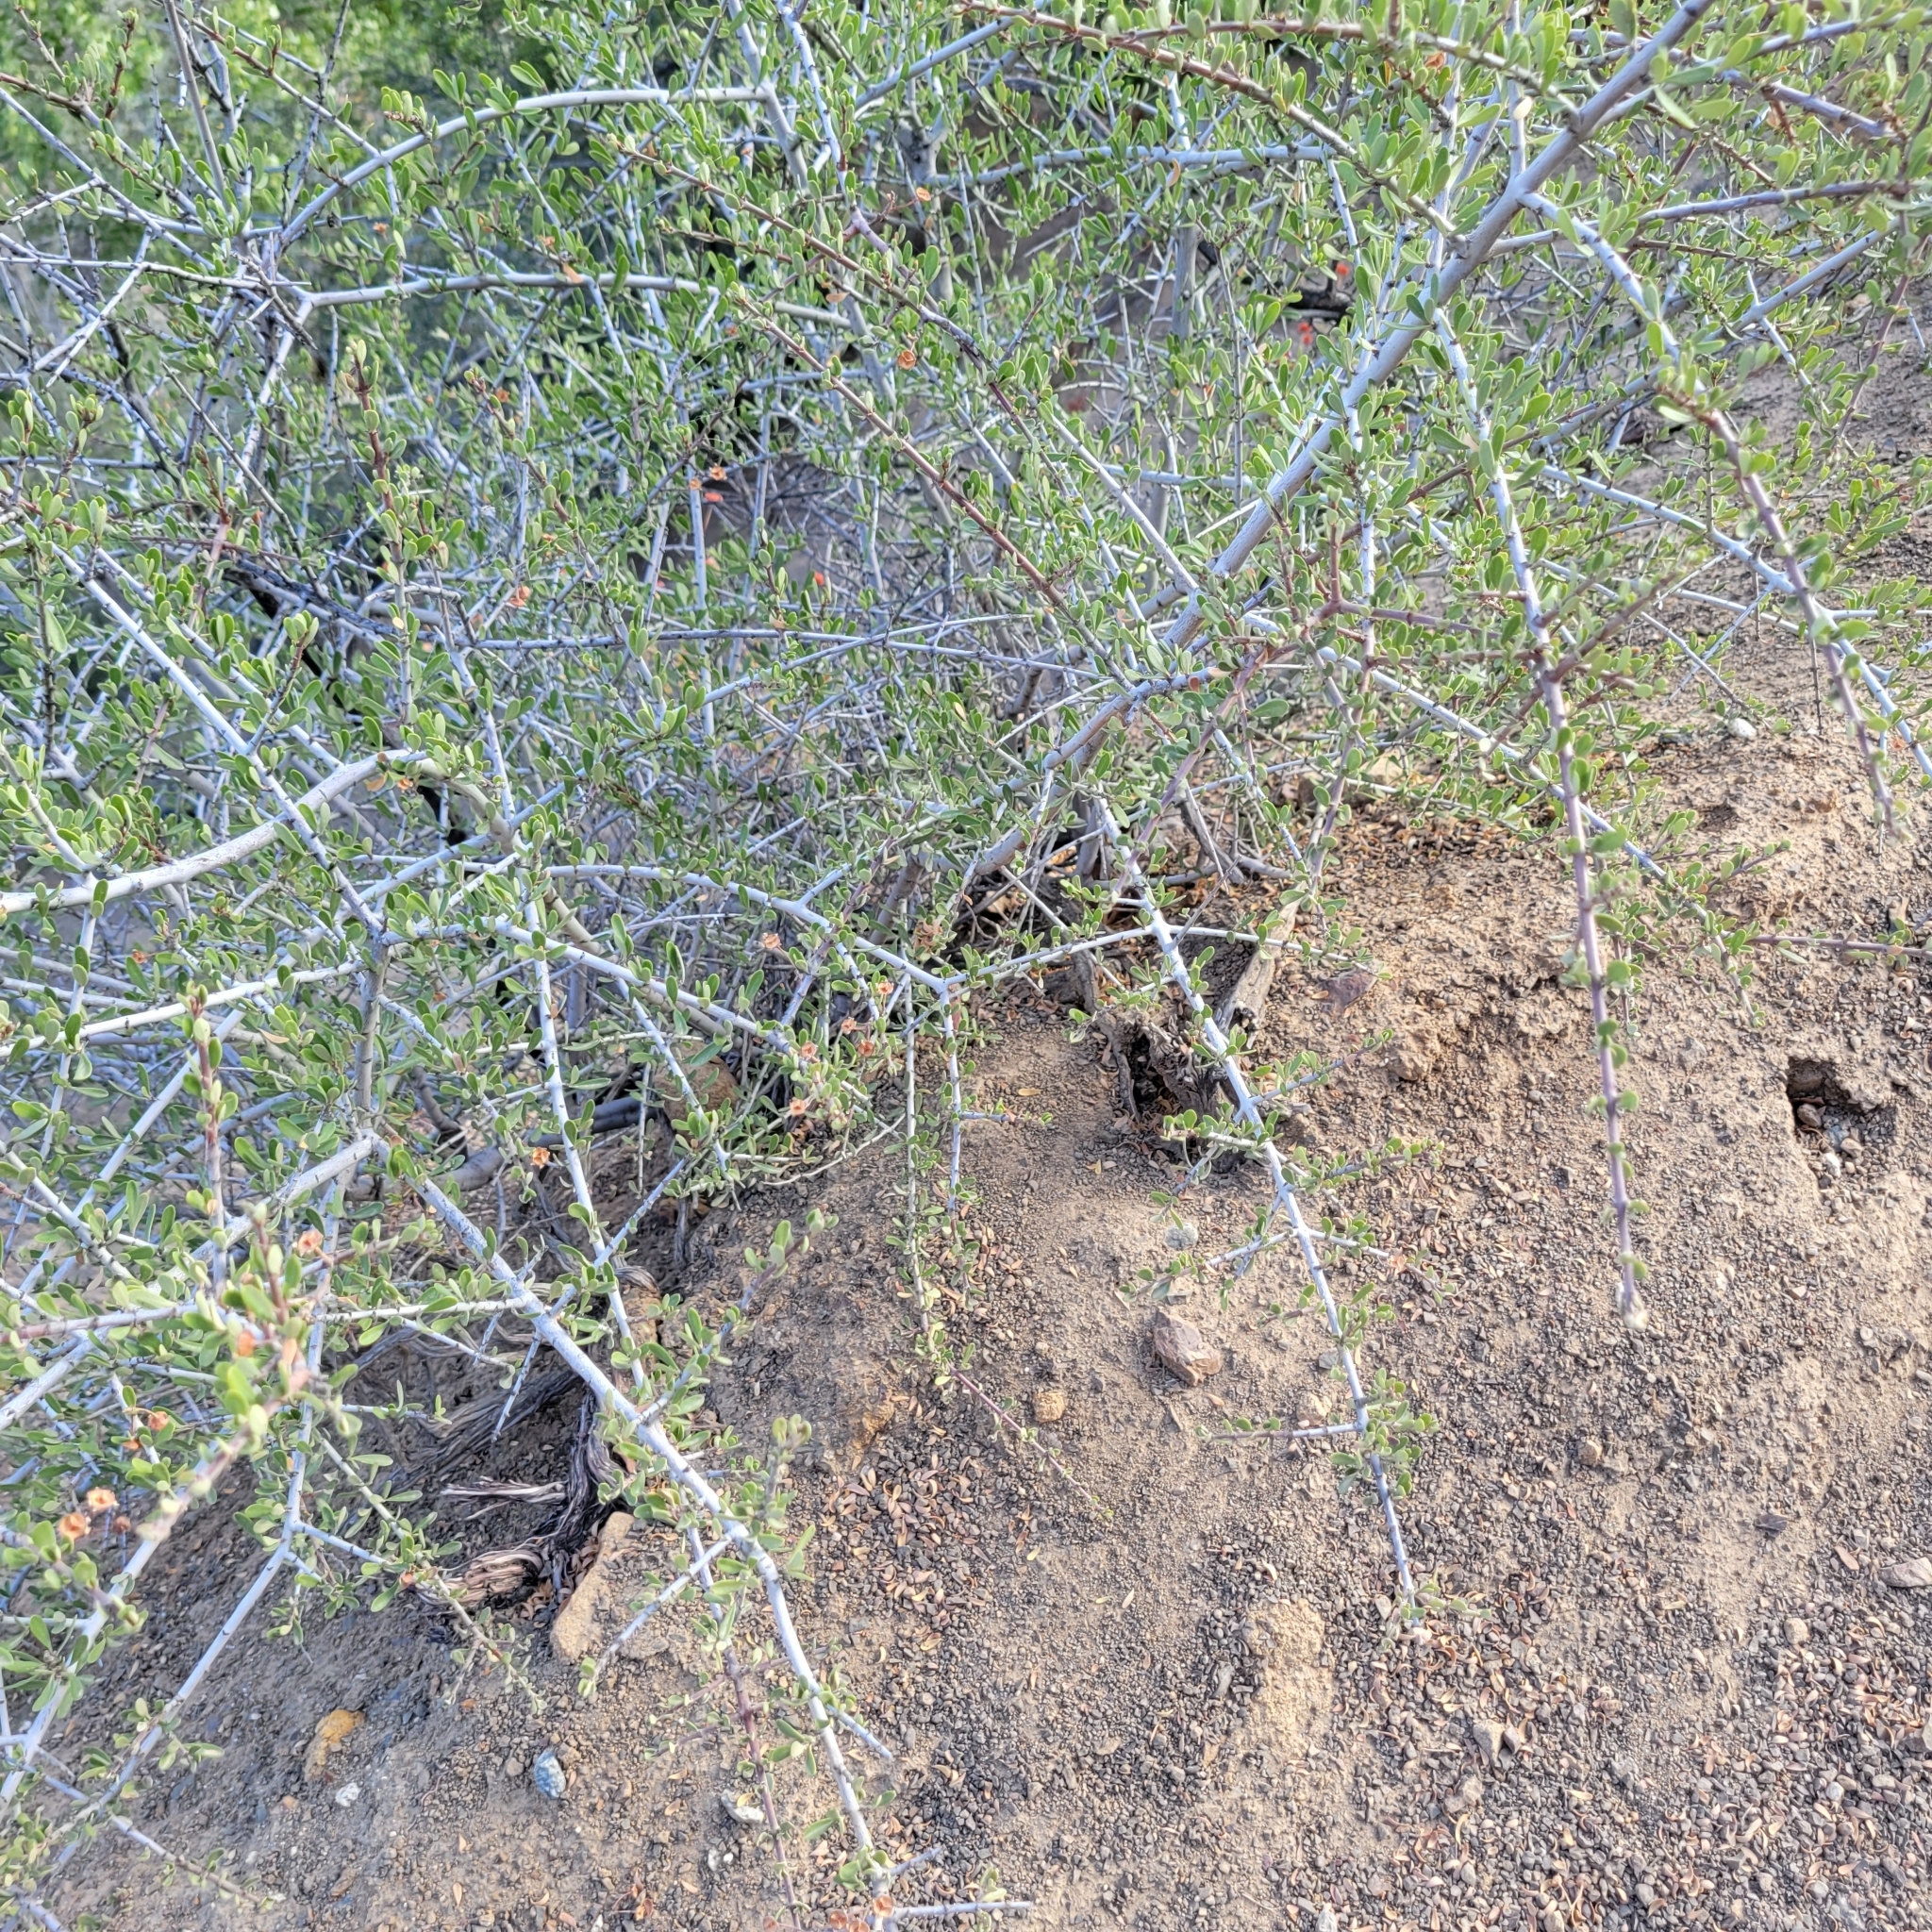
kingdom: Plantae
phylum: Tracheophyta
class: Magnoliopsida
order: Rosales
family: Rhamnaceae
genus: Ceanothus
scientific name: Ceanothus cuneatus
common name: Cuneate ceanothus
